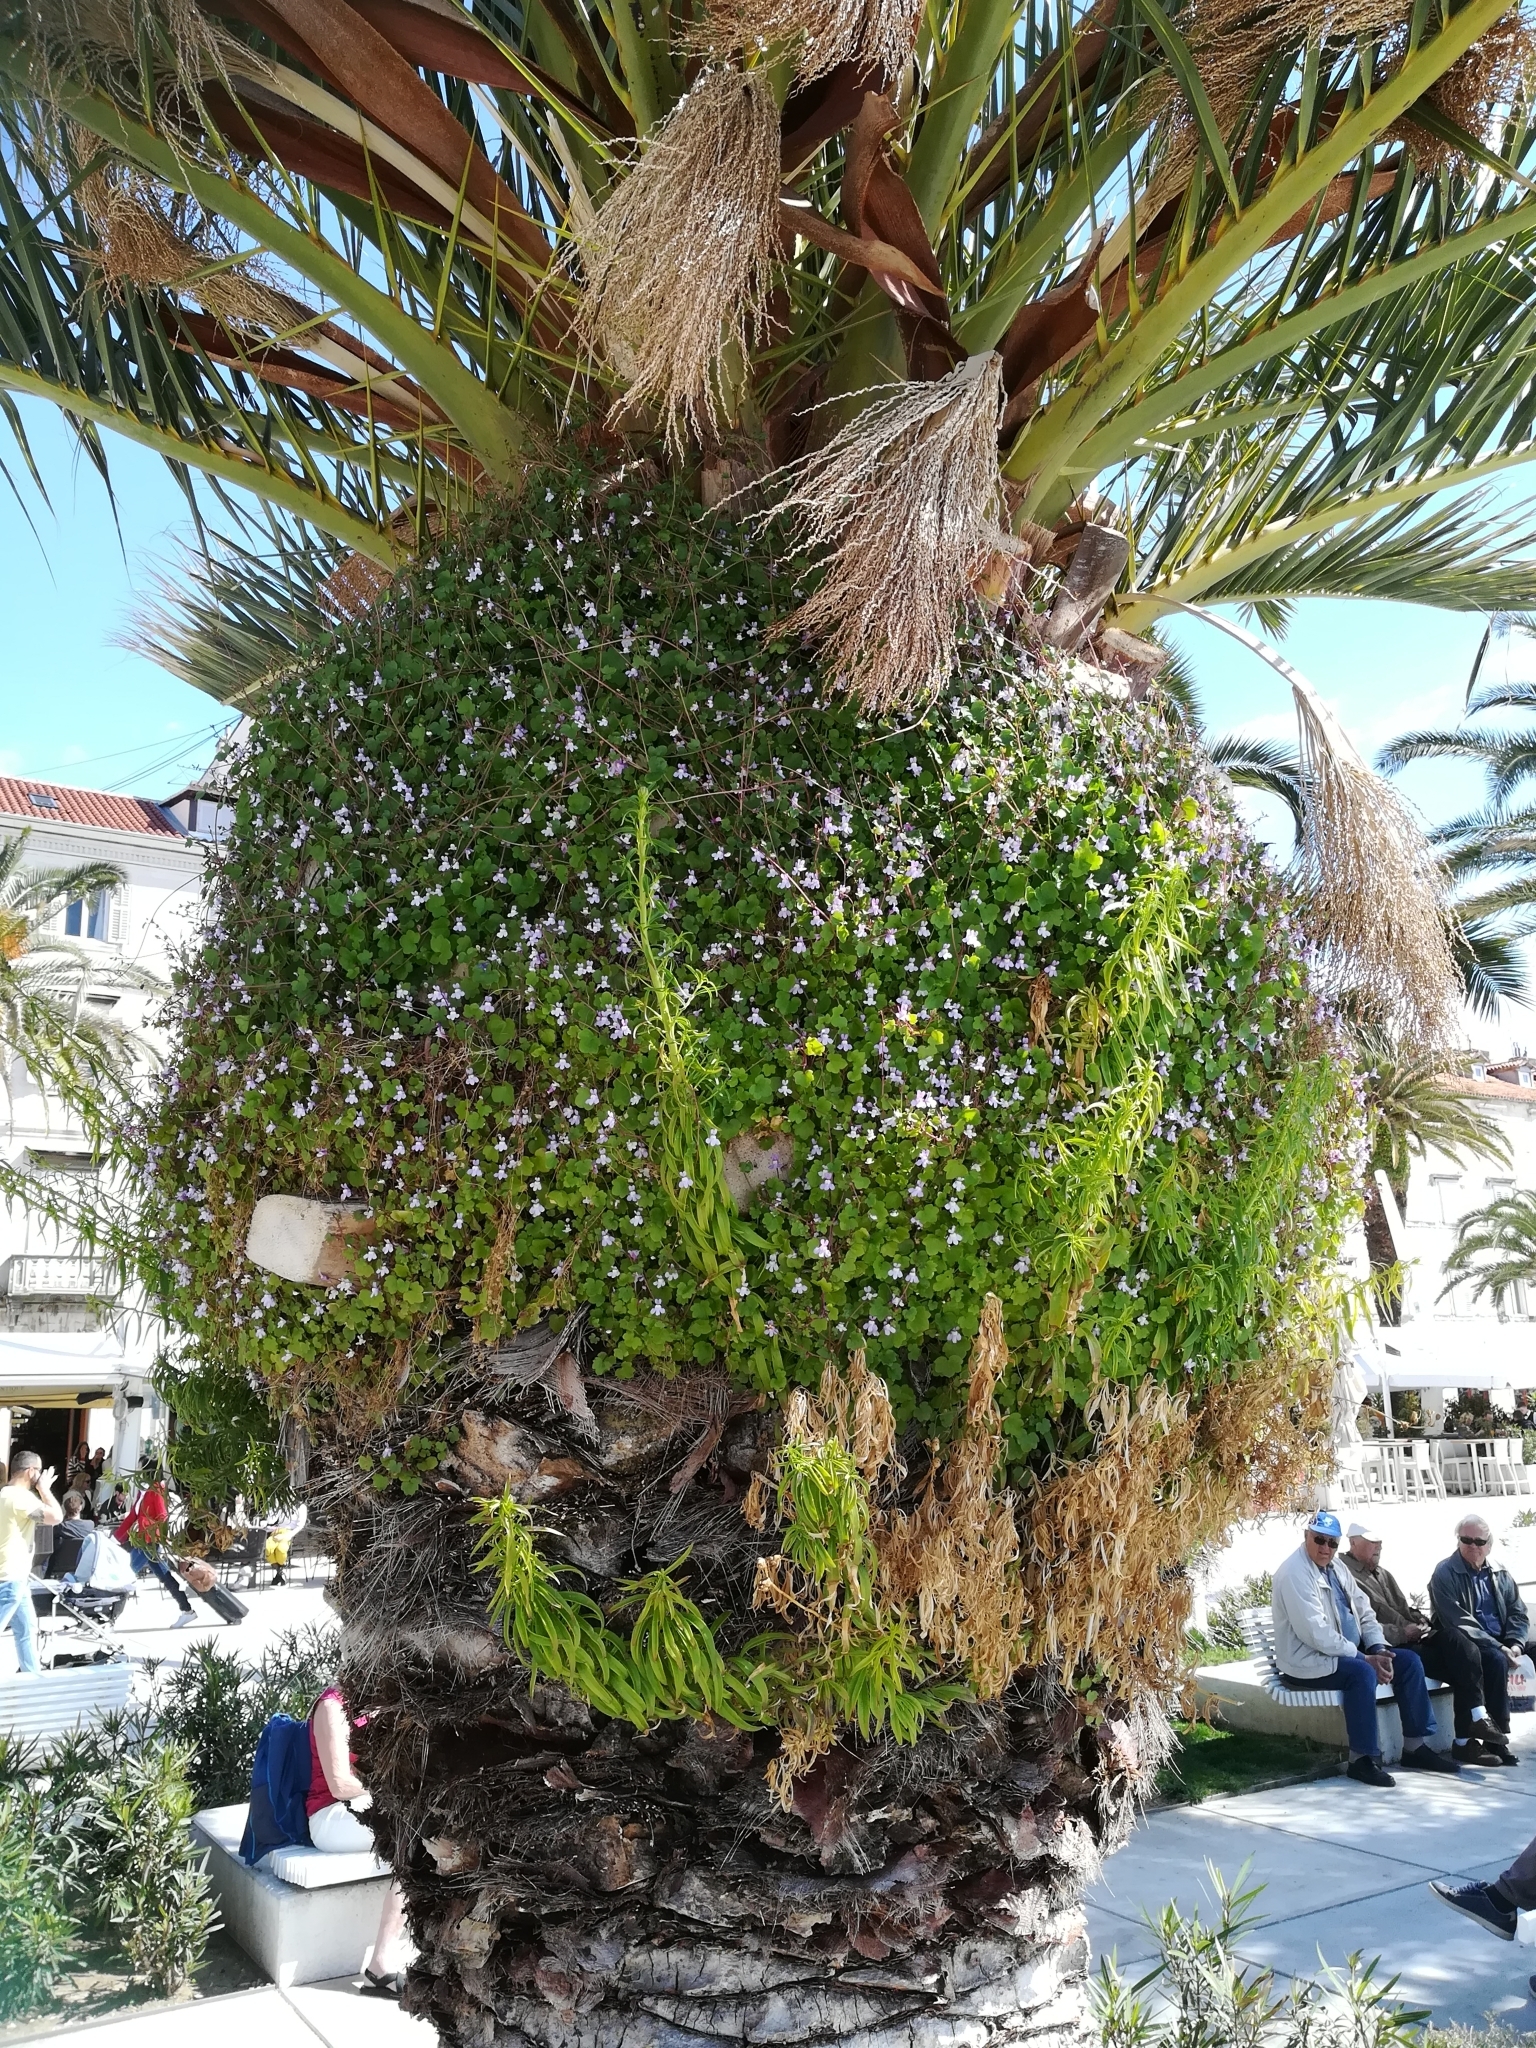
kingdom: Plantae
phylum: Tracheophyta
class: Magnoliopsida
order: Lamiales
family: Plantaginaceae
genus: Cymbalaria
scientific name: Cymbalaria muralis
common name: Ivy-leaved toadflax
